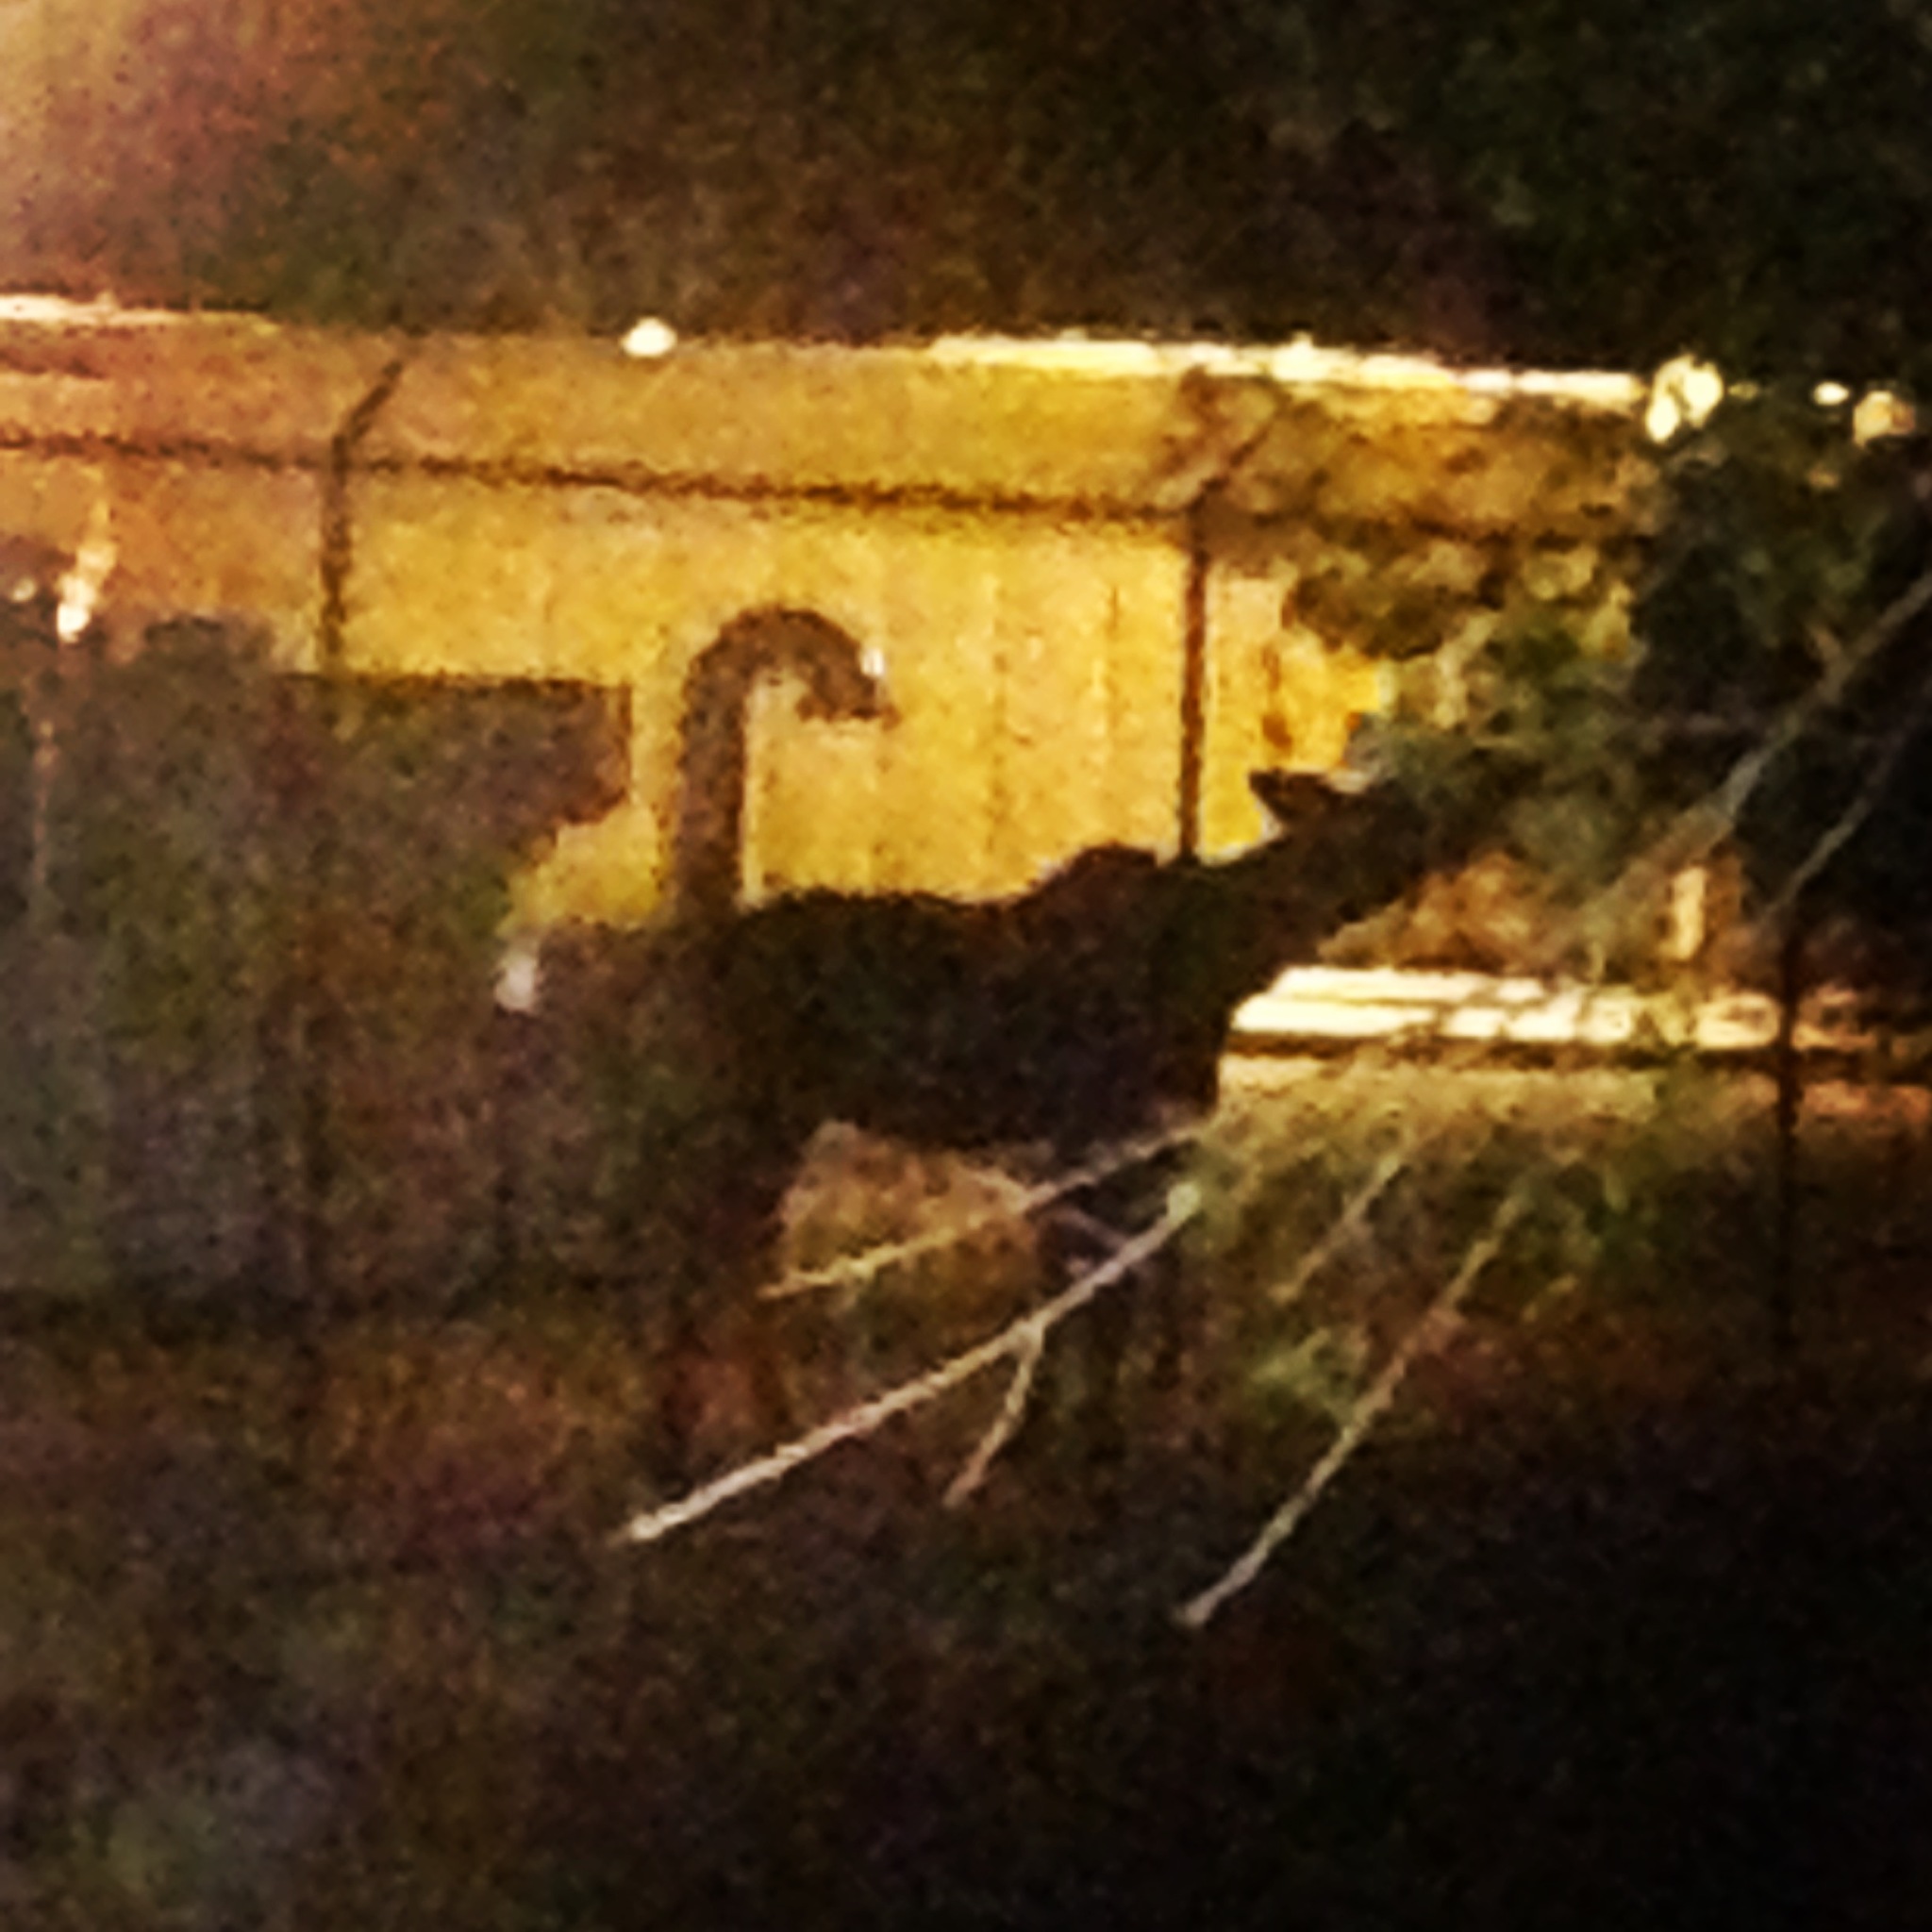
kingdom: Animalia
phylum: Chordata
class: Mammalia
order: Artiodactyla
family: Cervidae
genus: Alces
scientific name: Alces alces
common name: Moose
